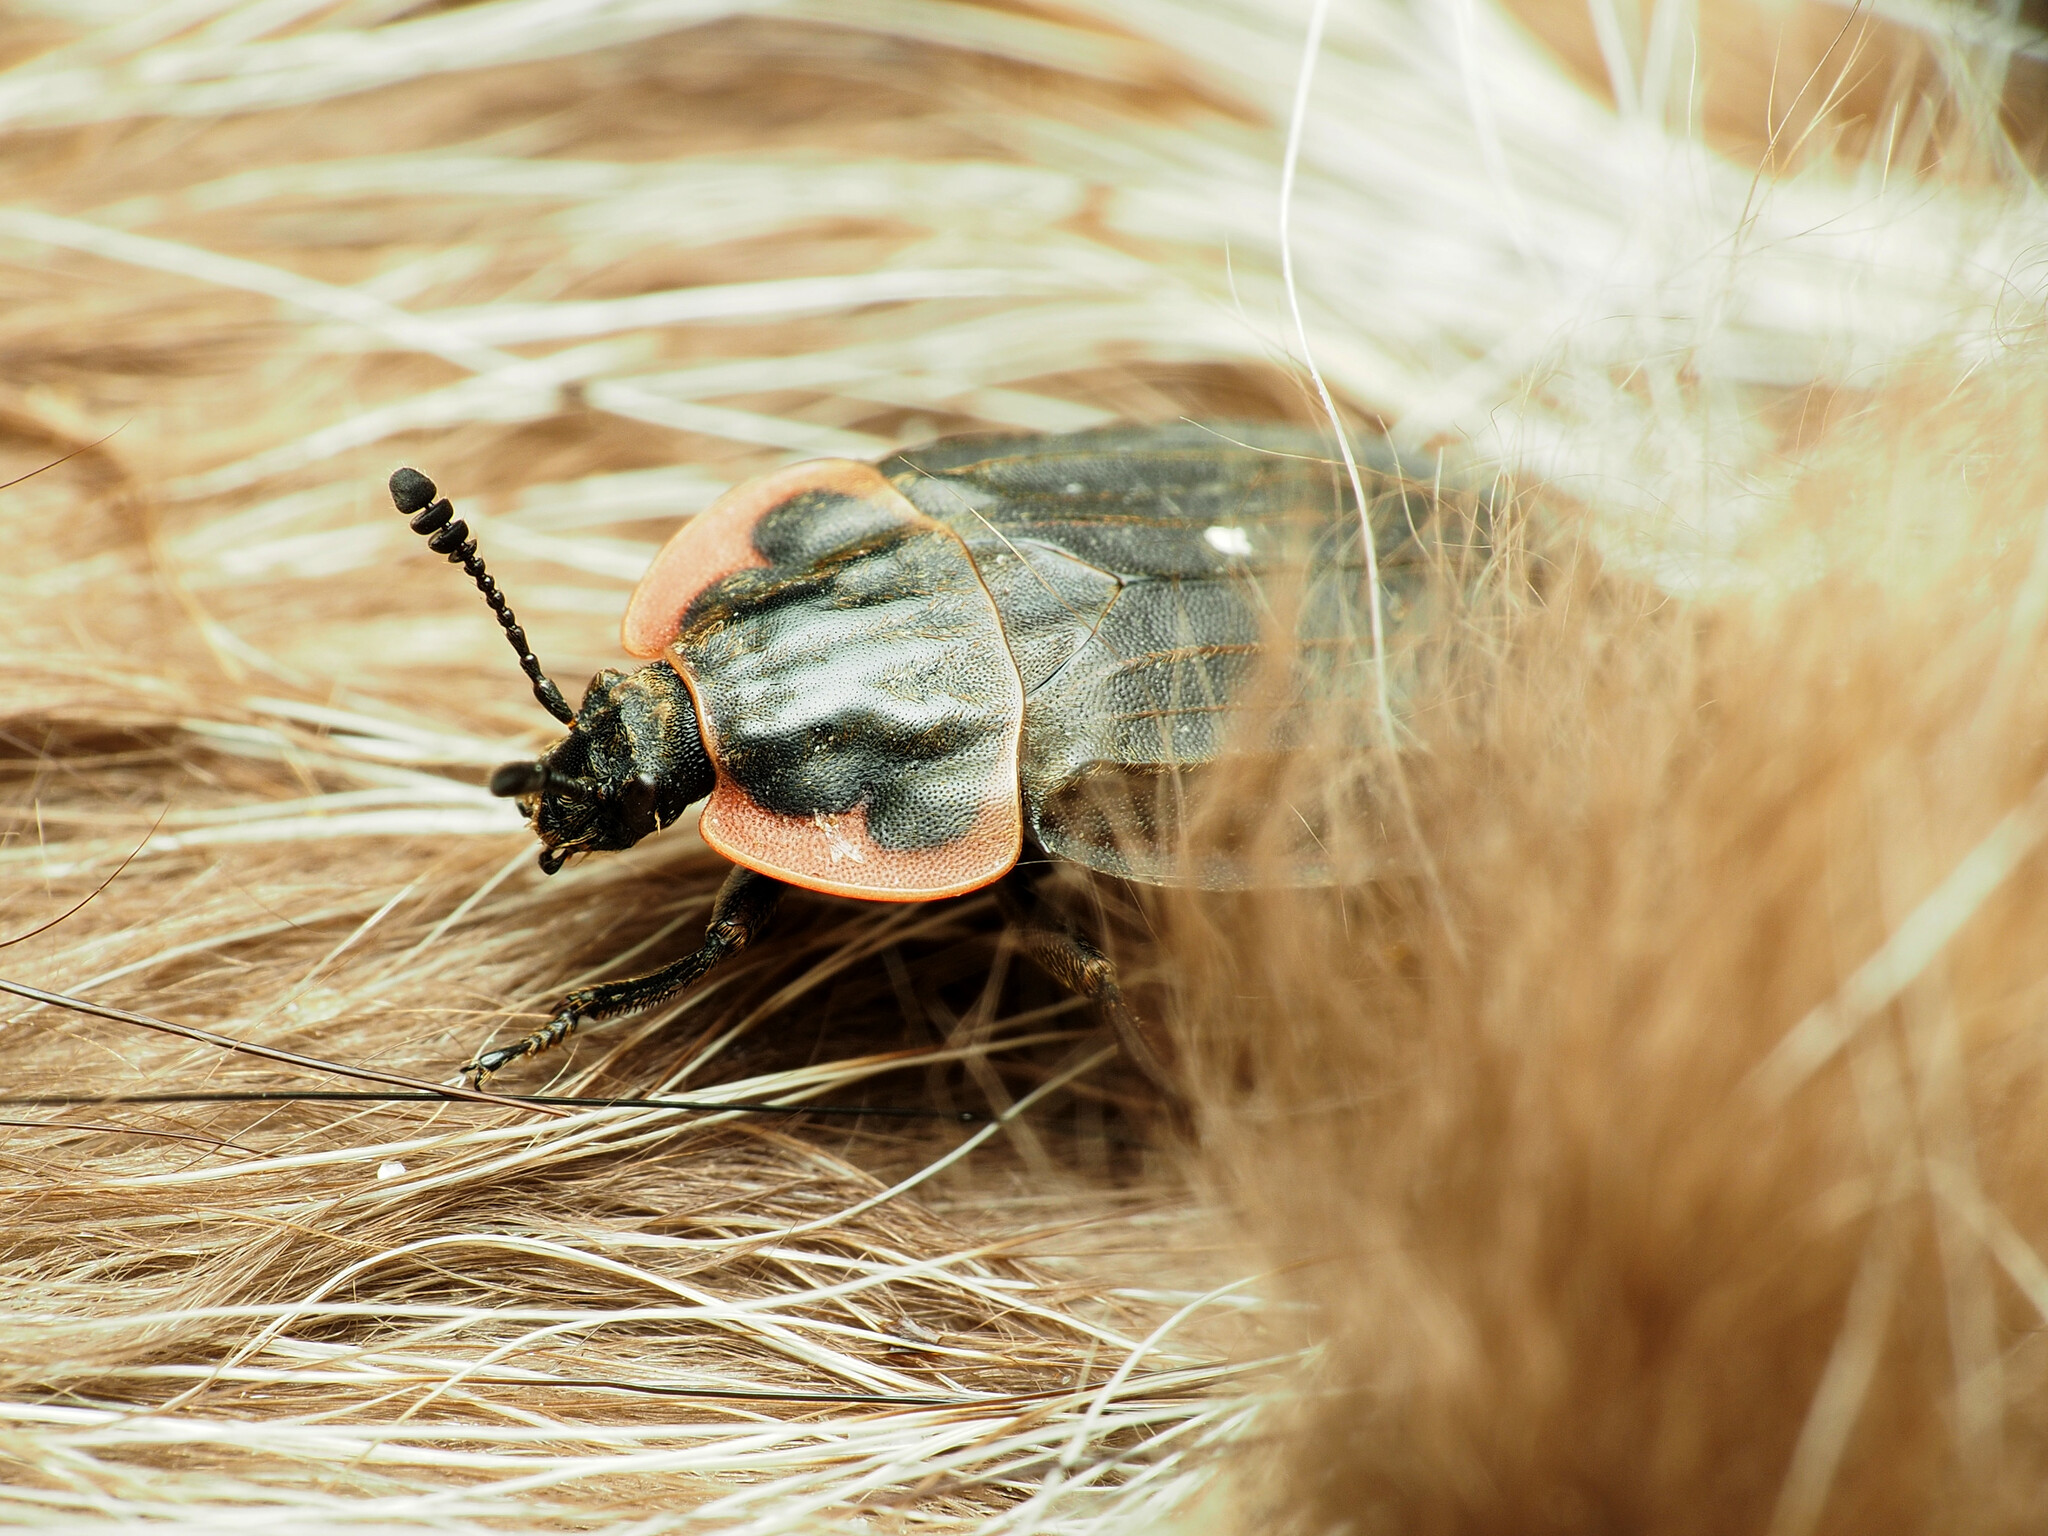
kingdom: Animalia
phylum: Arthropoda
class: Insecta
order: Coleoptera
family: Staphylinidae
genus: Oiceoptoma
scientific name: Oiceoptoma noveboracense
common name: Margined carrion beetle
